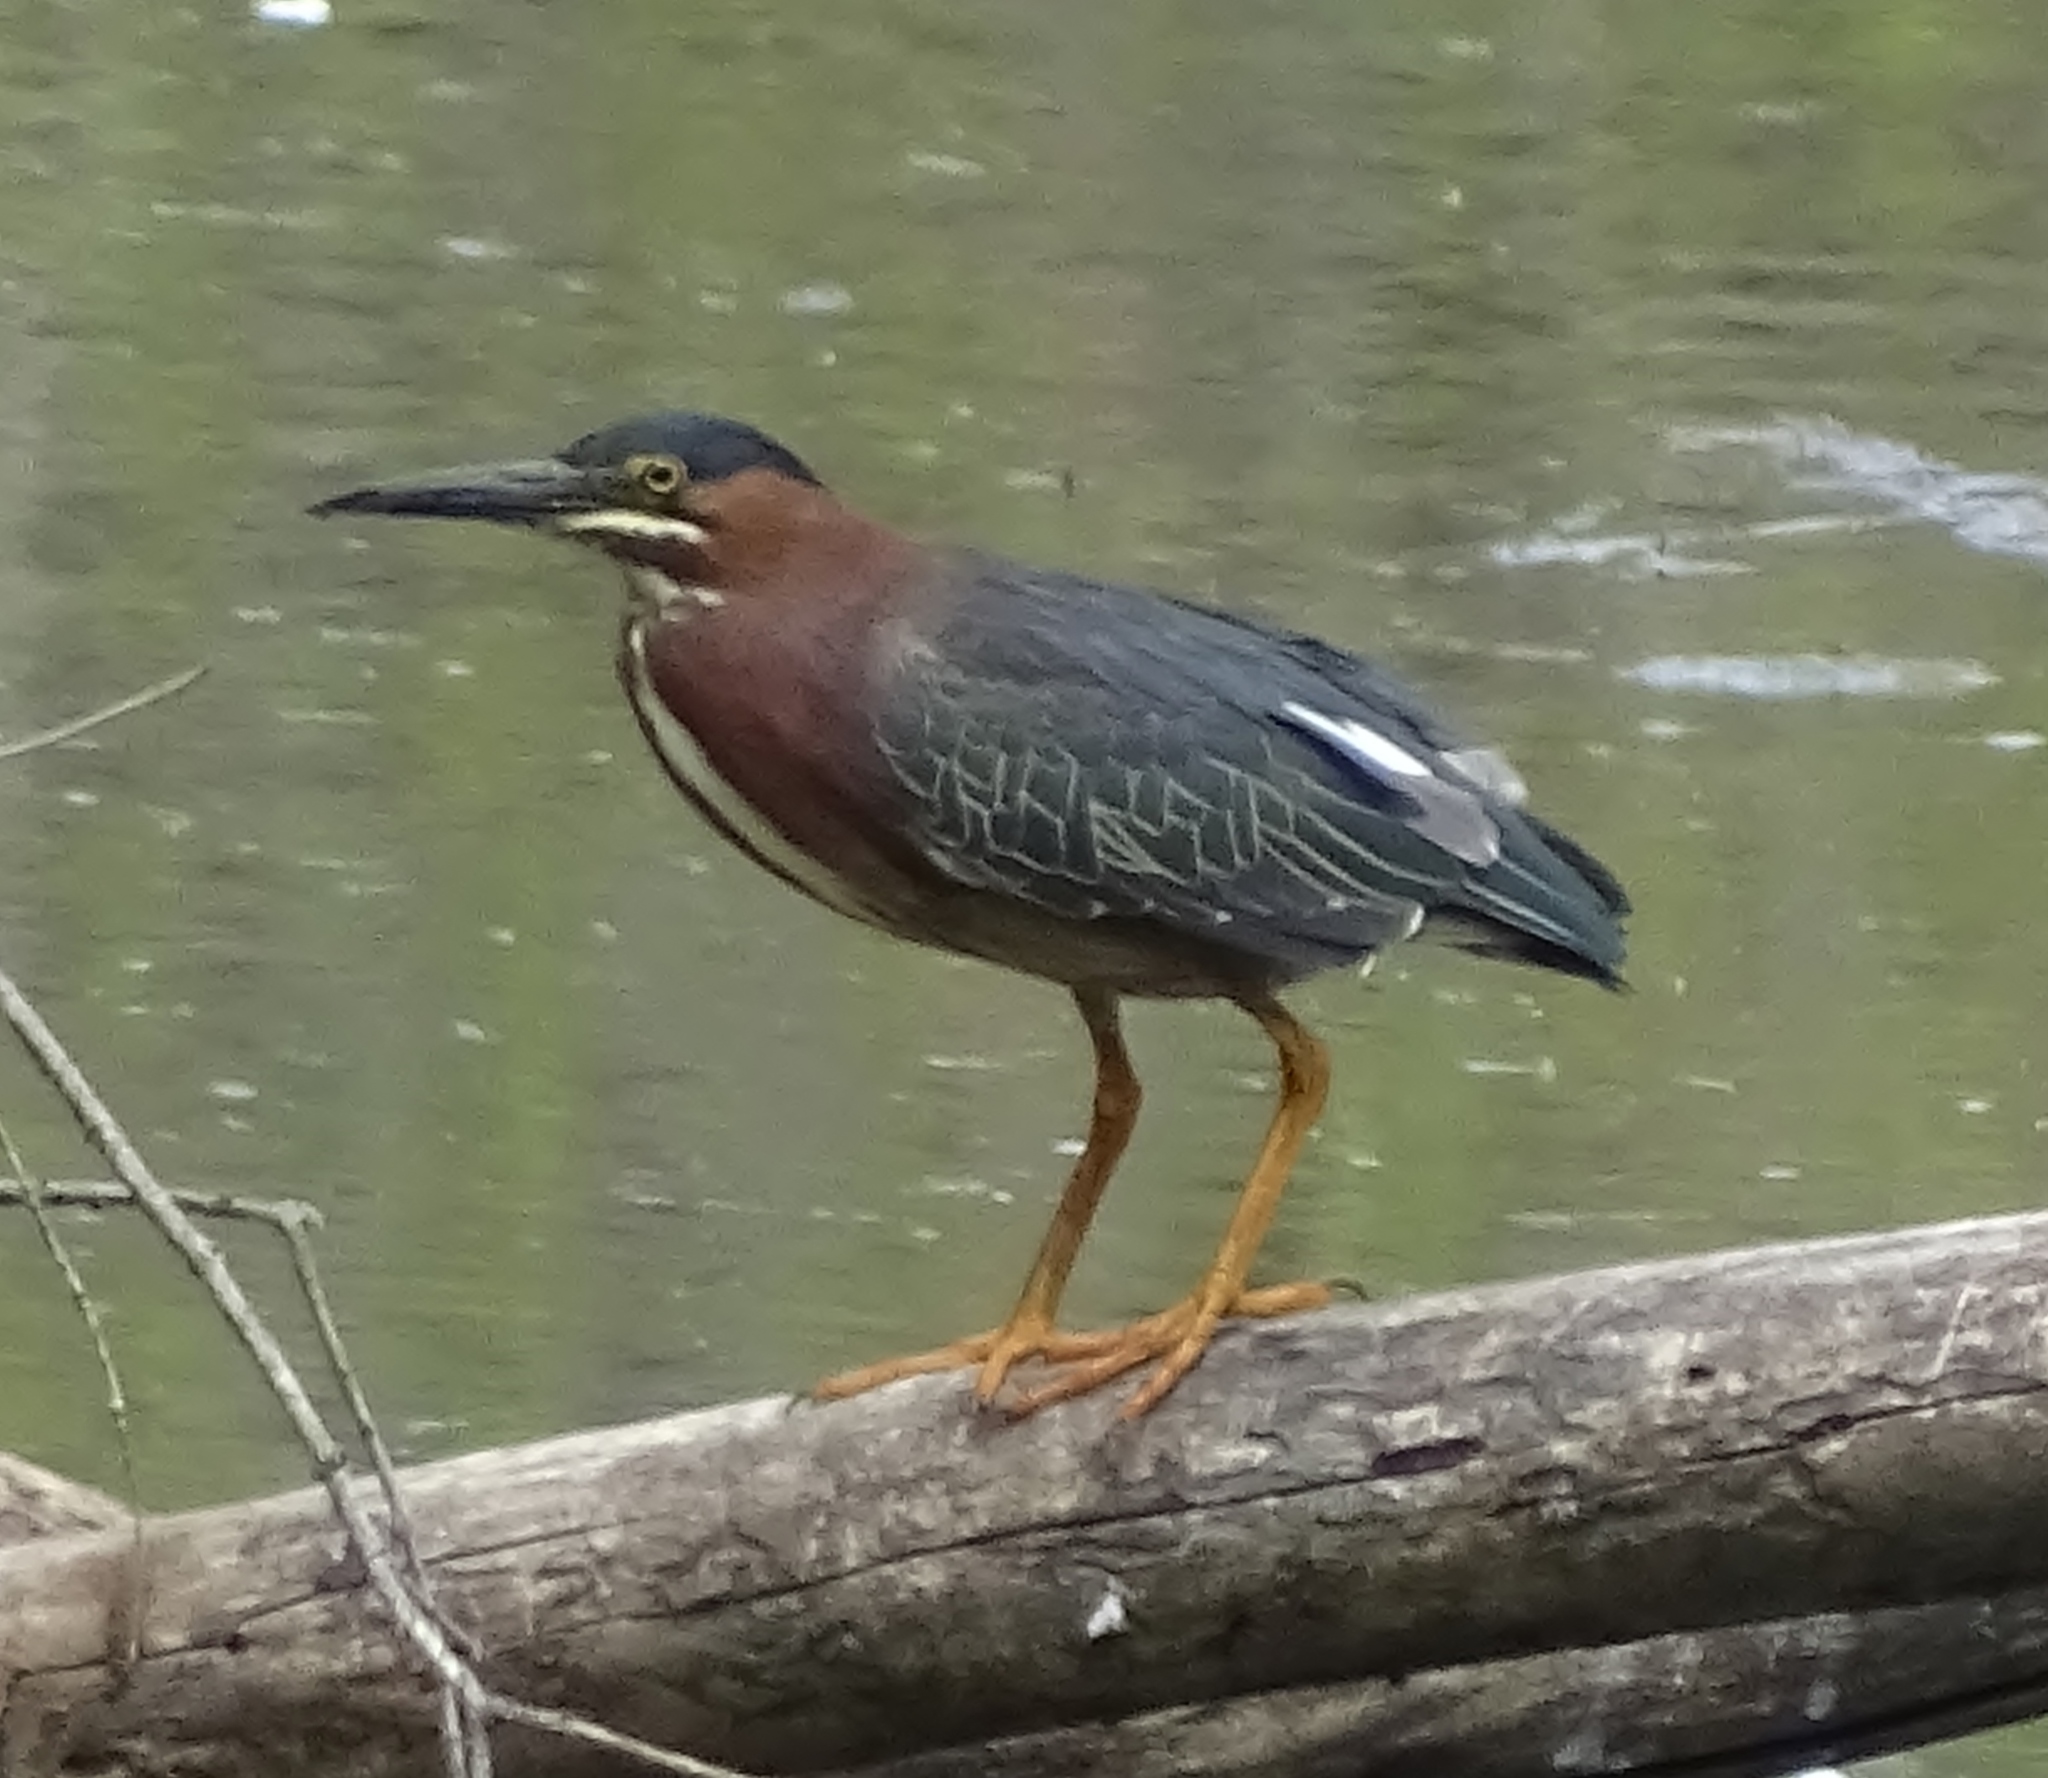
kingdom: Animalia
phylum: Chordata
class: Aves
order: Pelecaniformes
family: Ardeidae
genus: Butorides
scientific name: Butorides virescens
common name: Green heron
